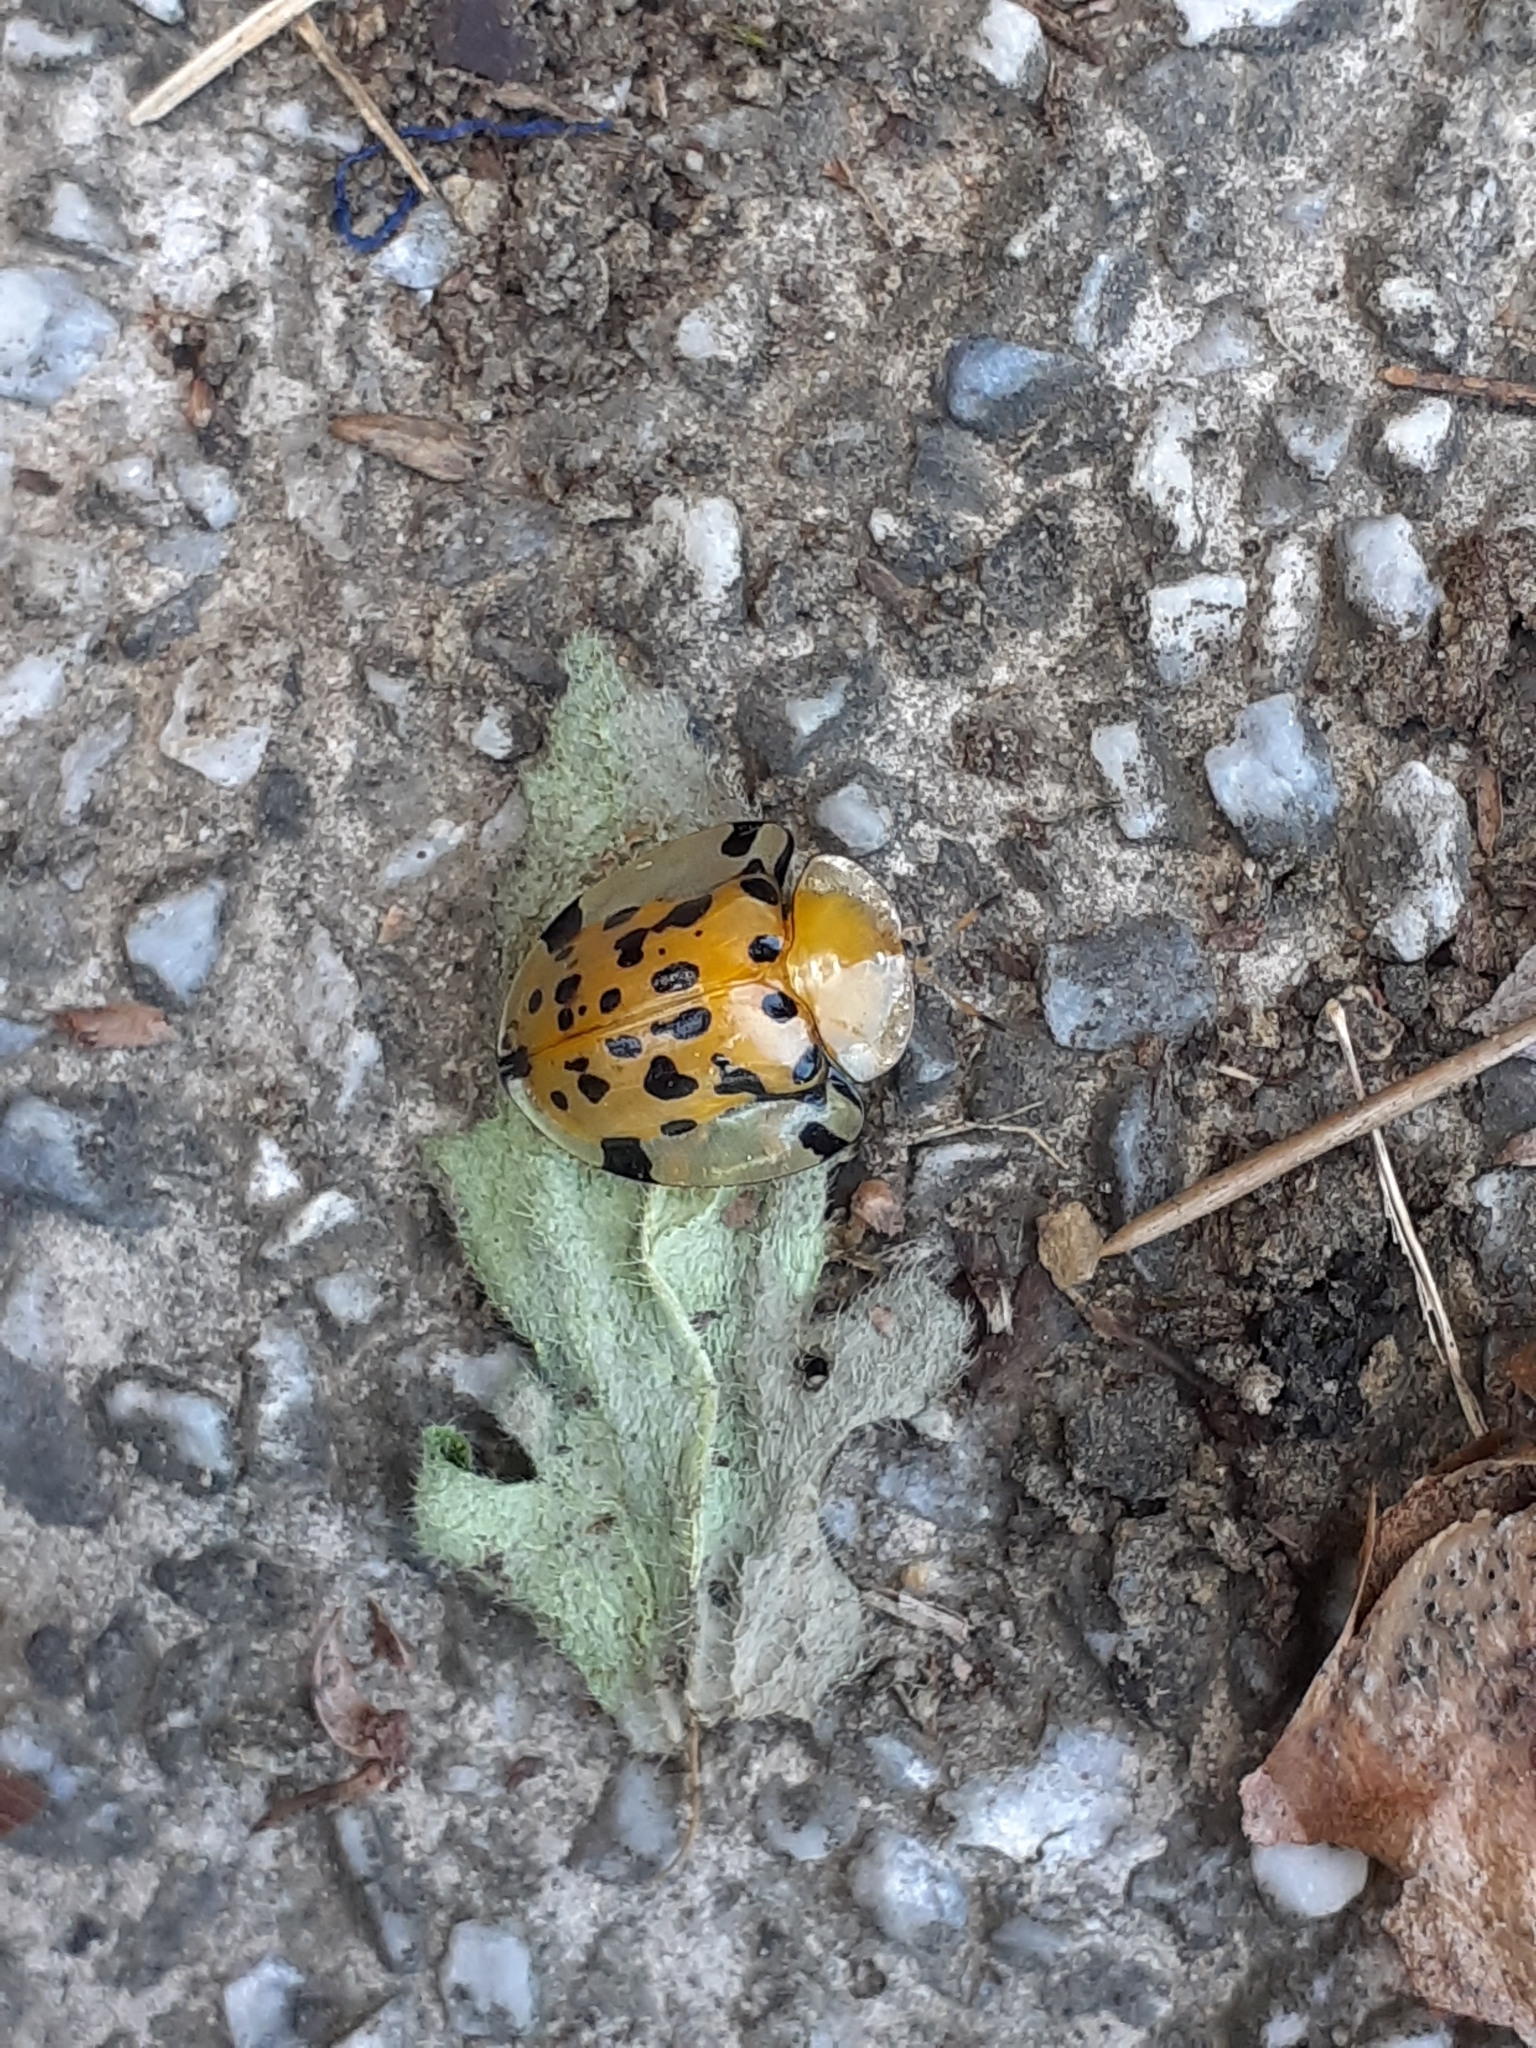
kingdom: Animalia
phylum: Arthropoda
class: Insecta
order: Coleoptera
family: Chrysomelidae
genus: Aspidimorpha
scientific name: Aspidimorpha miliaris
